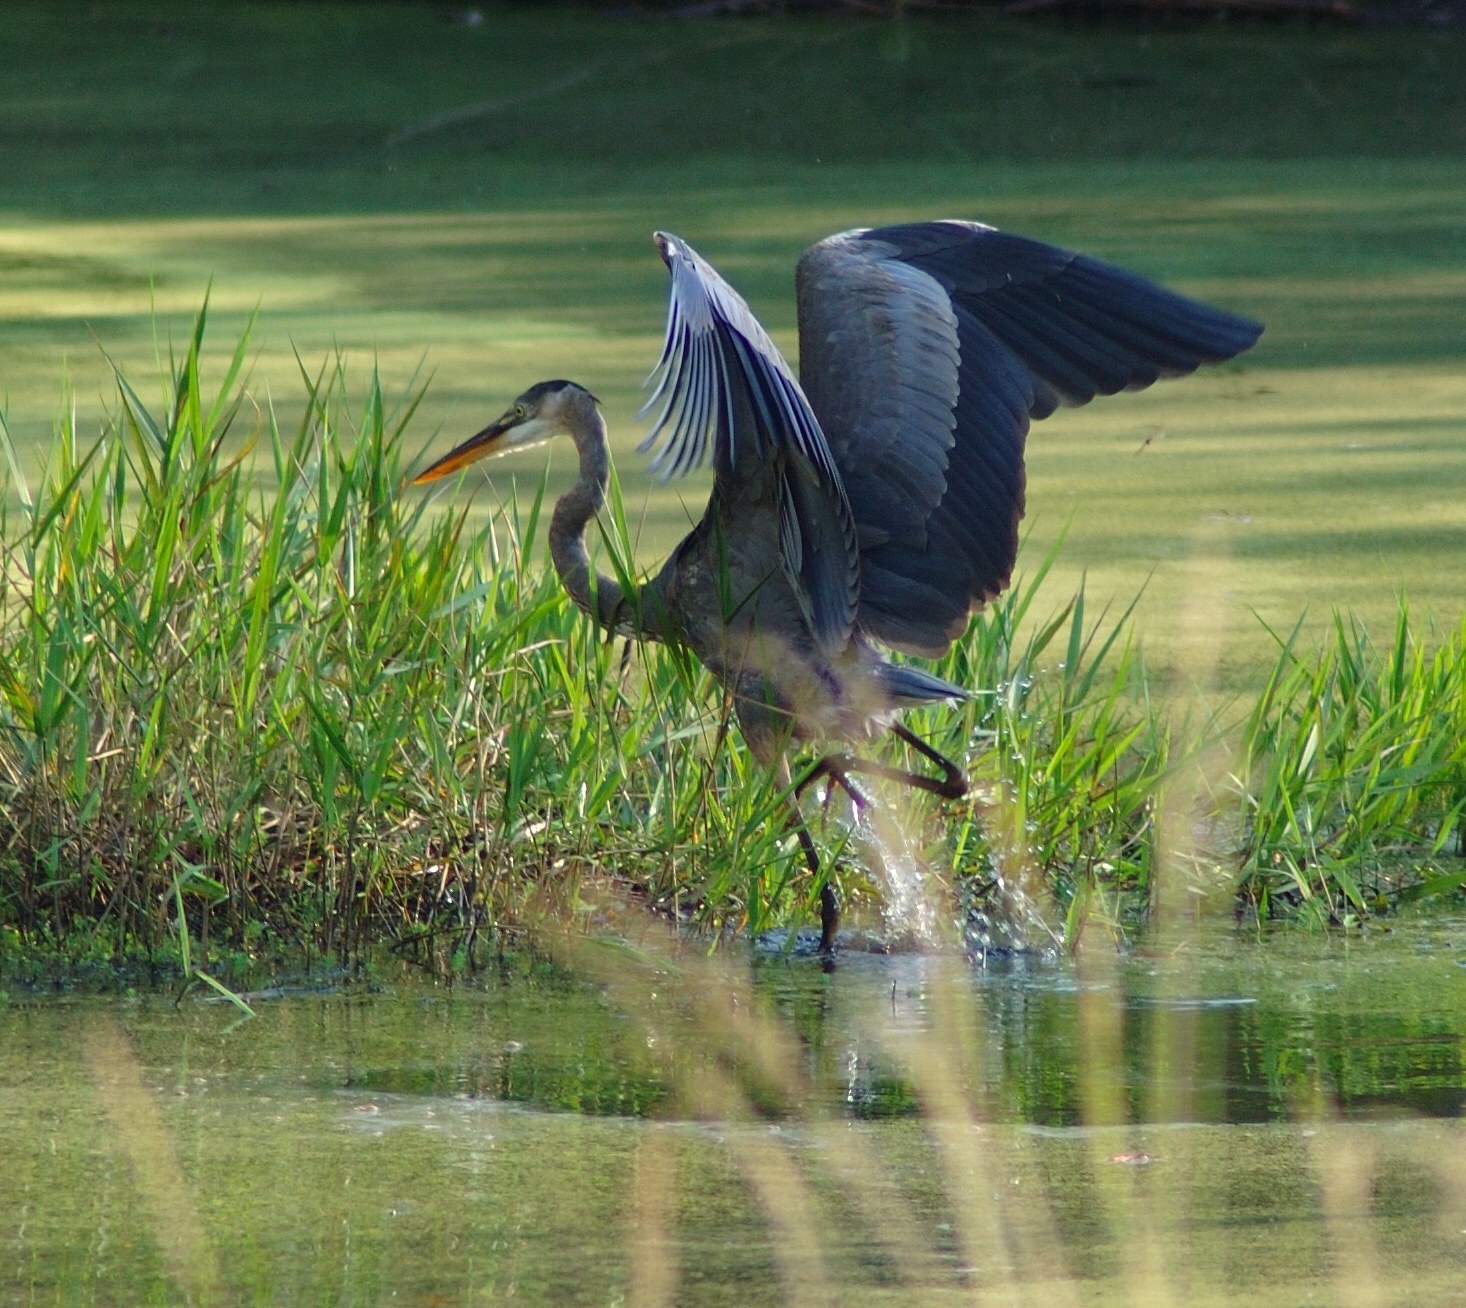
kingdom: Animalia
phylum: Chordata
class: Aves
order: Pelecaniformes
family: Ardeidae
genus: Ardea
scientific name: Ardea herodias
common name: Great blue heron
